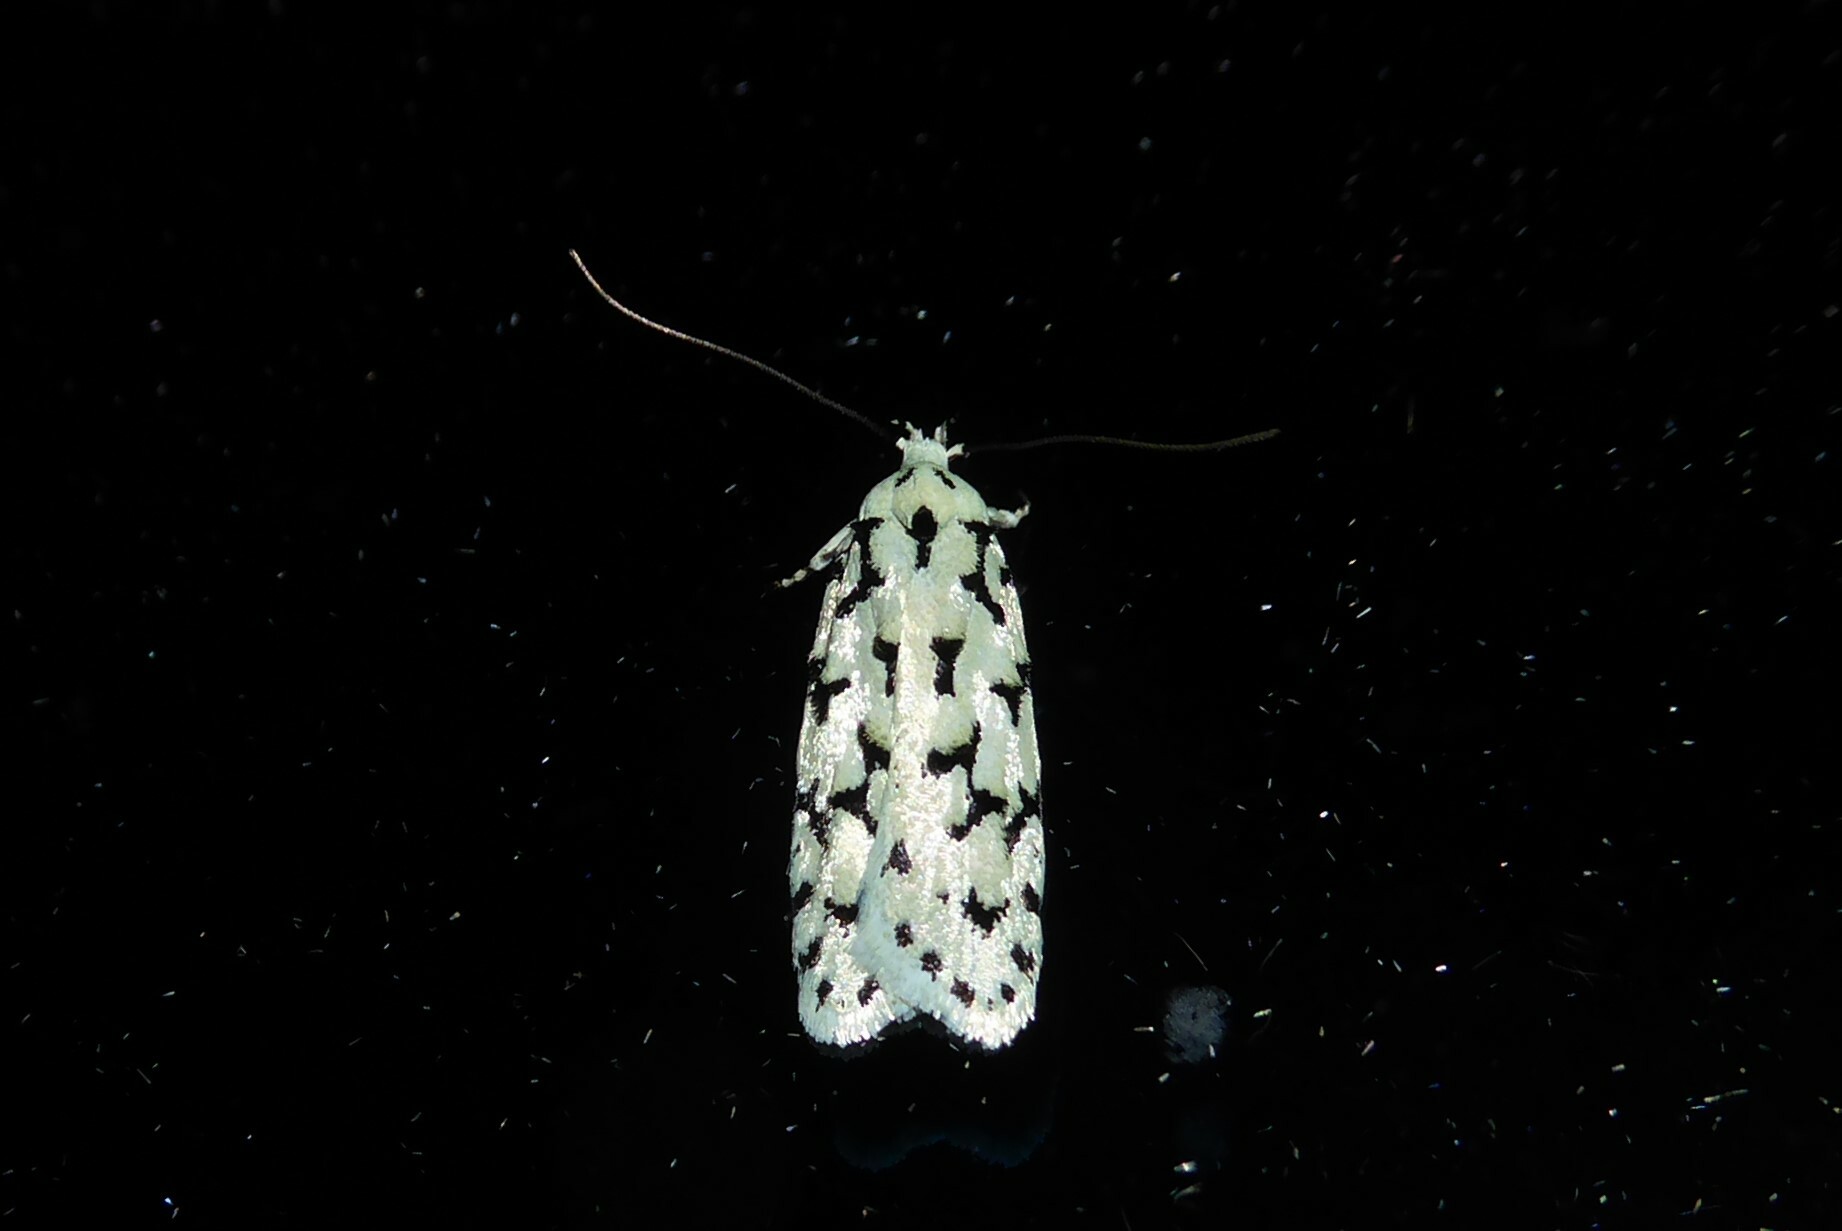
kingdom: Animalia
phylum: Arthropoda
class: Insecta
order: Lepidoptera
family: Oecophoridae
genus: Izatha
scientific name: Izatha huttoni
